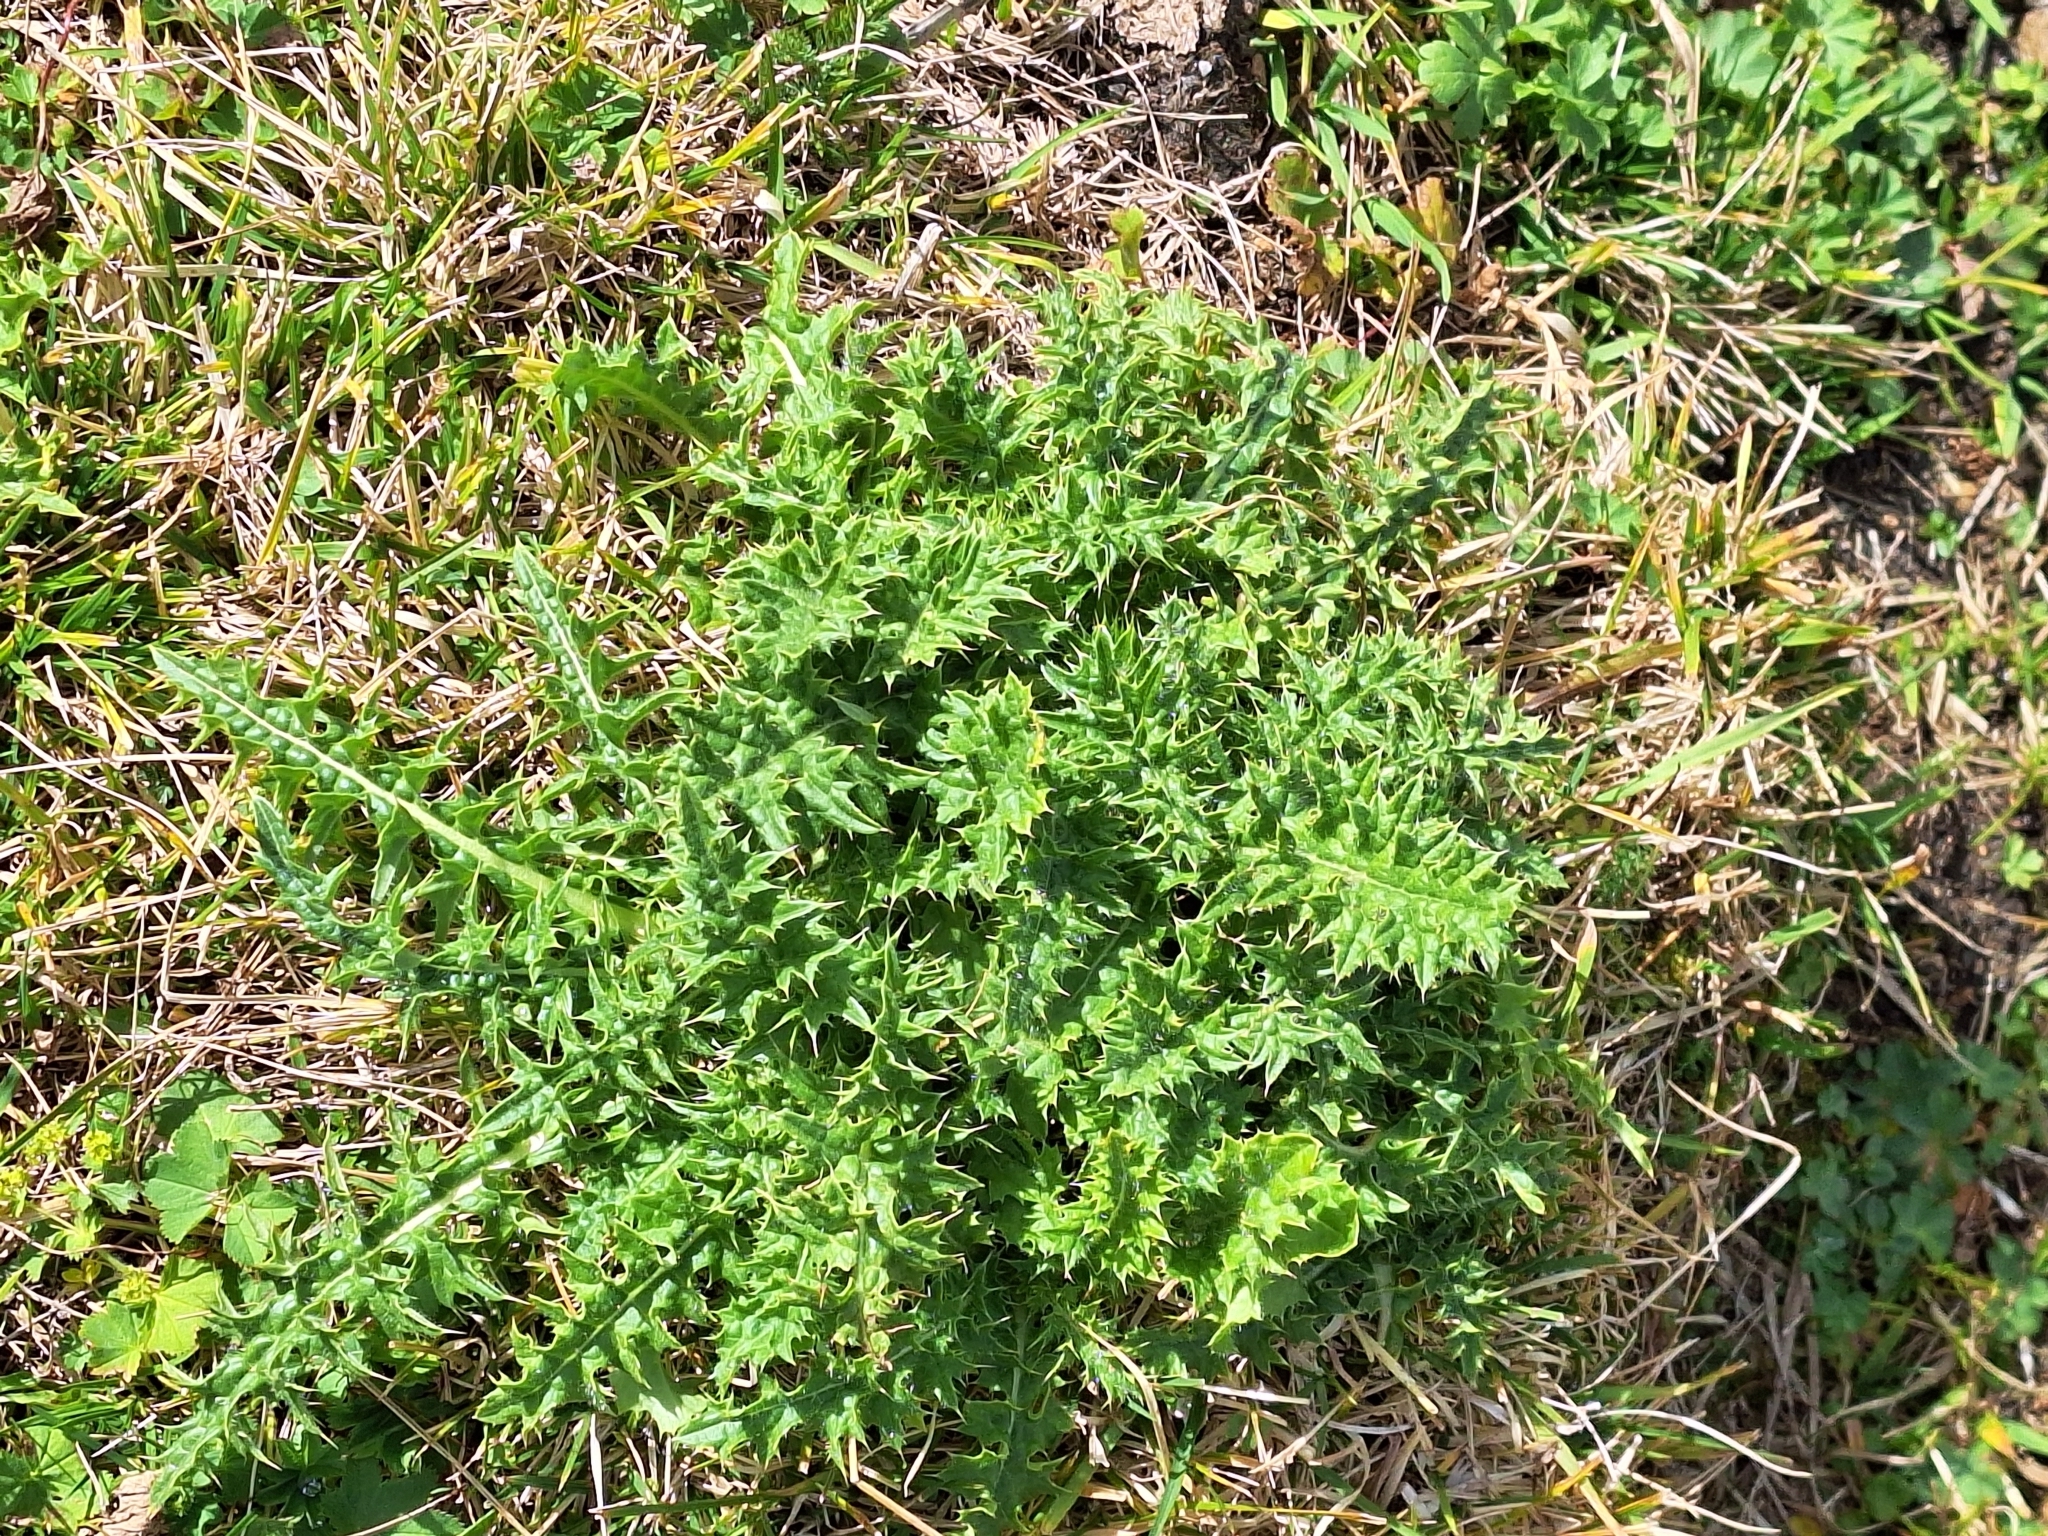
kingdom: Plantae
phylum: Tracheophyta
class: Magnoliopsida
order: Asterales
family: Asteraceae
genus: Cirsium
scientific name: Cirsium spinosissimum
